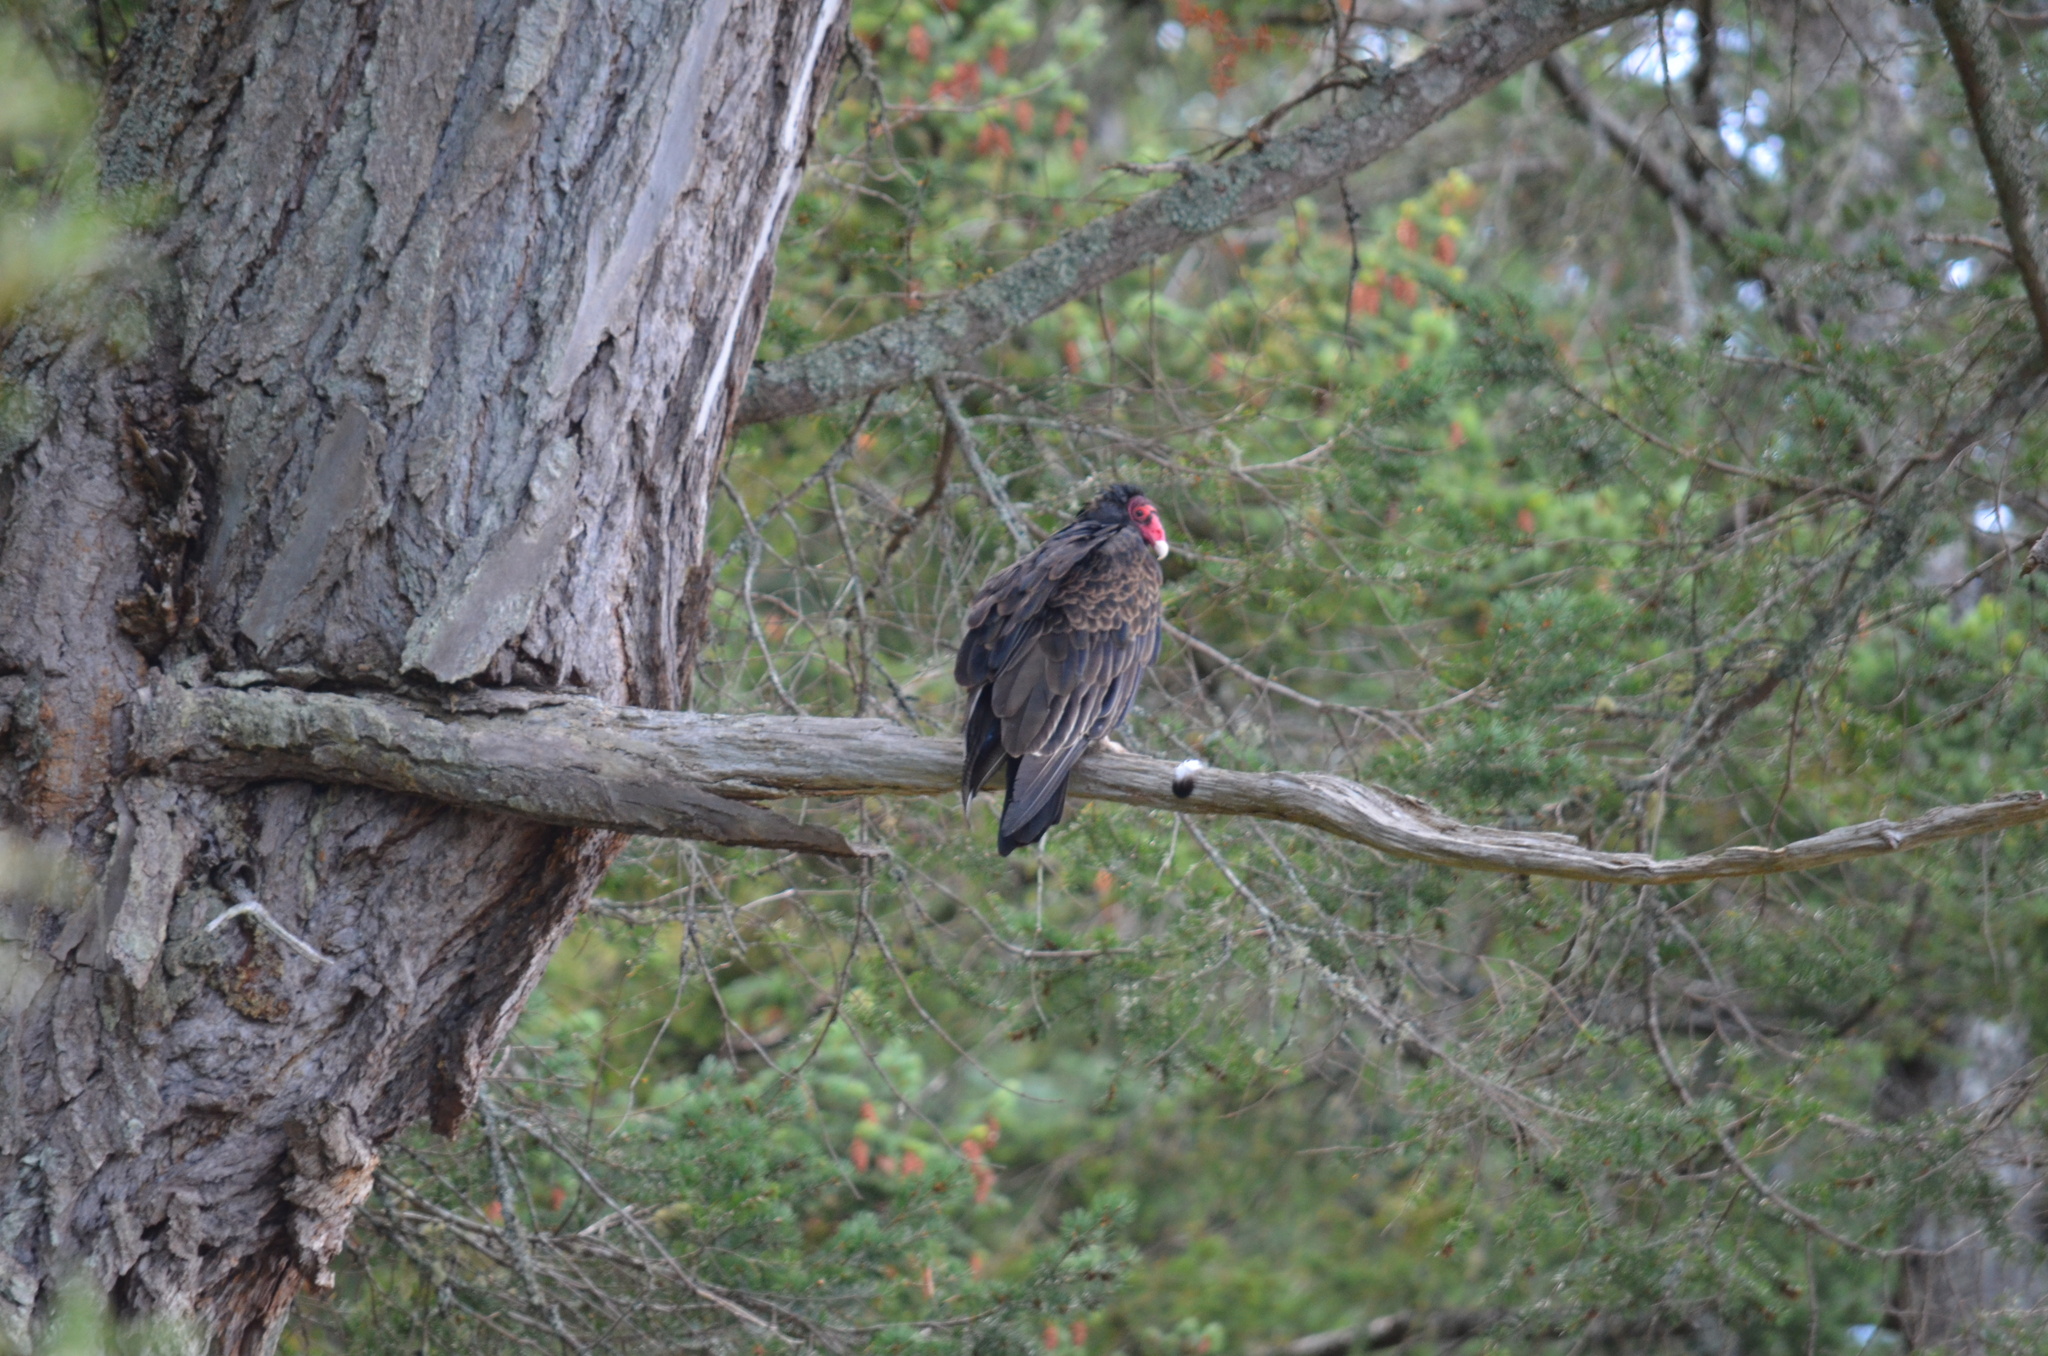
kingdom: Animalia
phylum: Chordata
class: Aves
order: Accipitriformes
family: Cathartidae
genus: Cathartes
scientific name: Cathartes aura
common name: Turkey vulture
